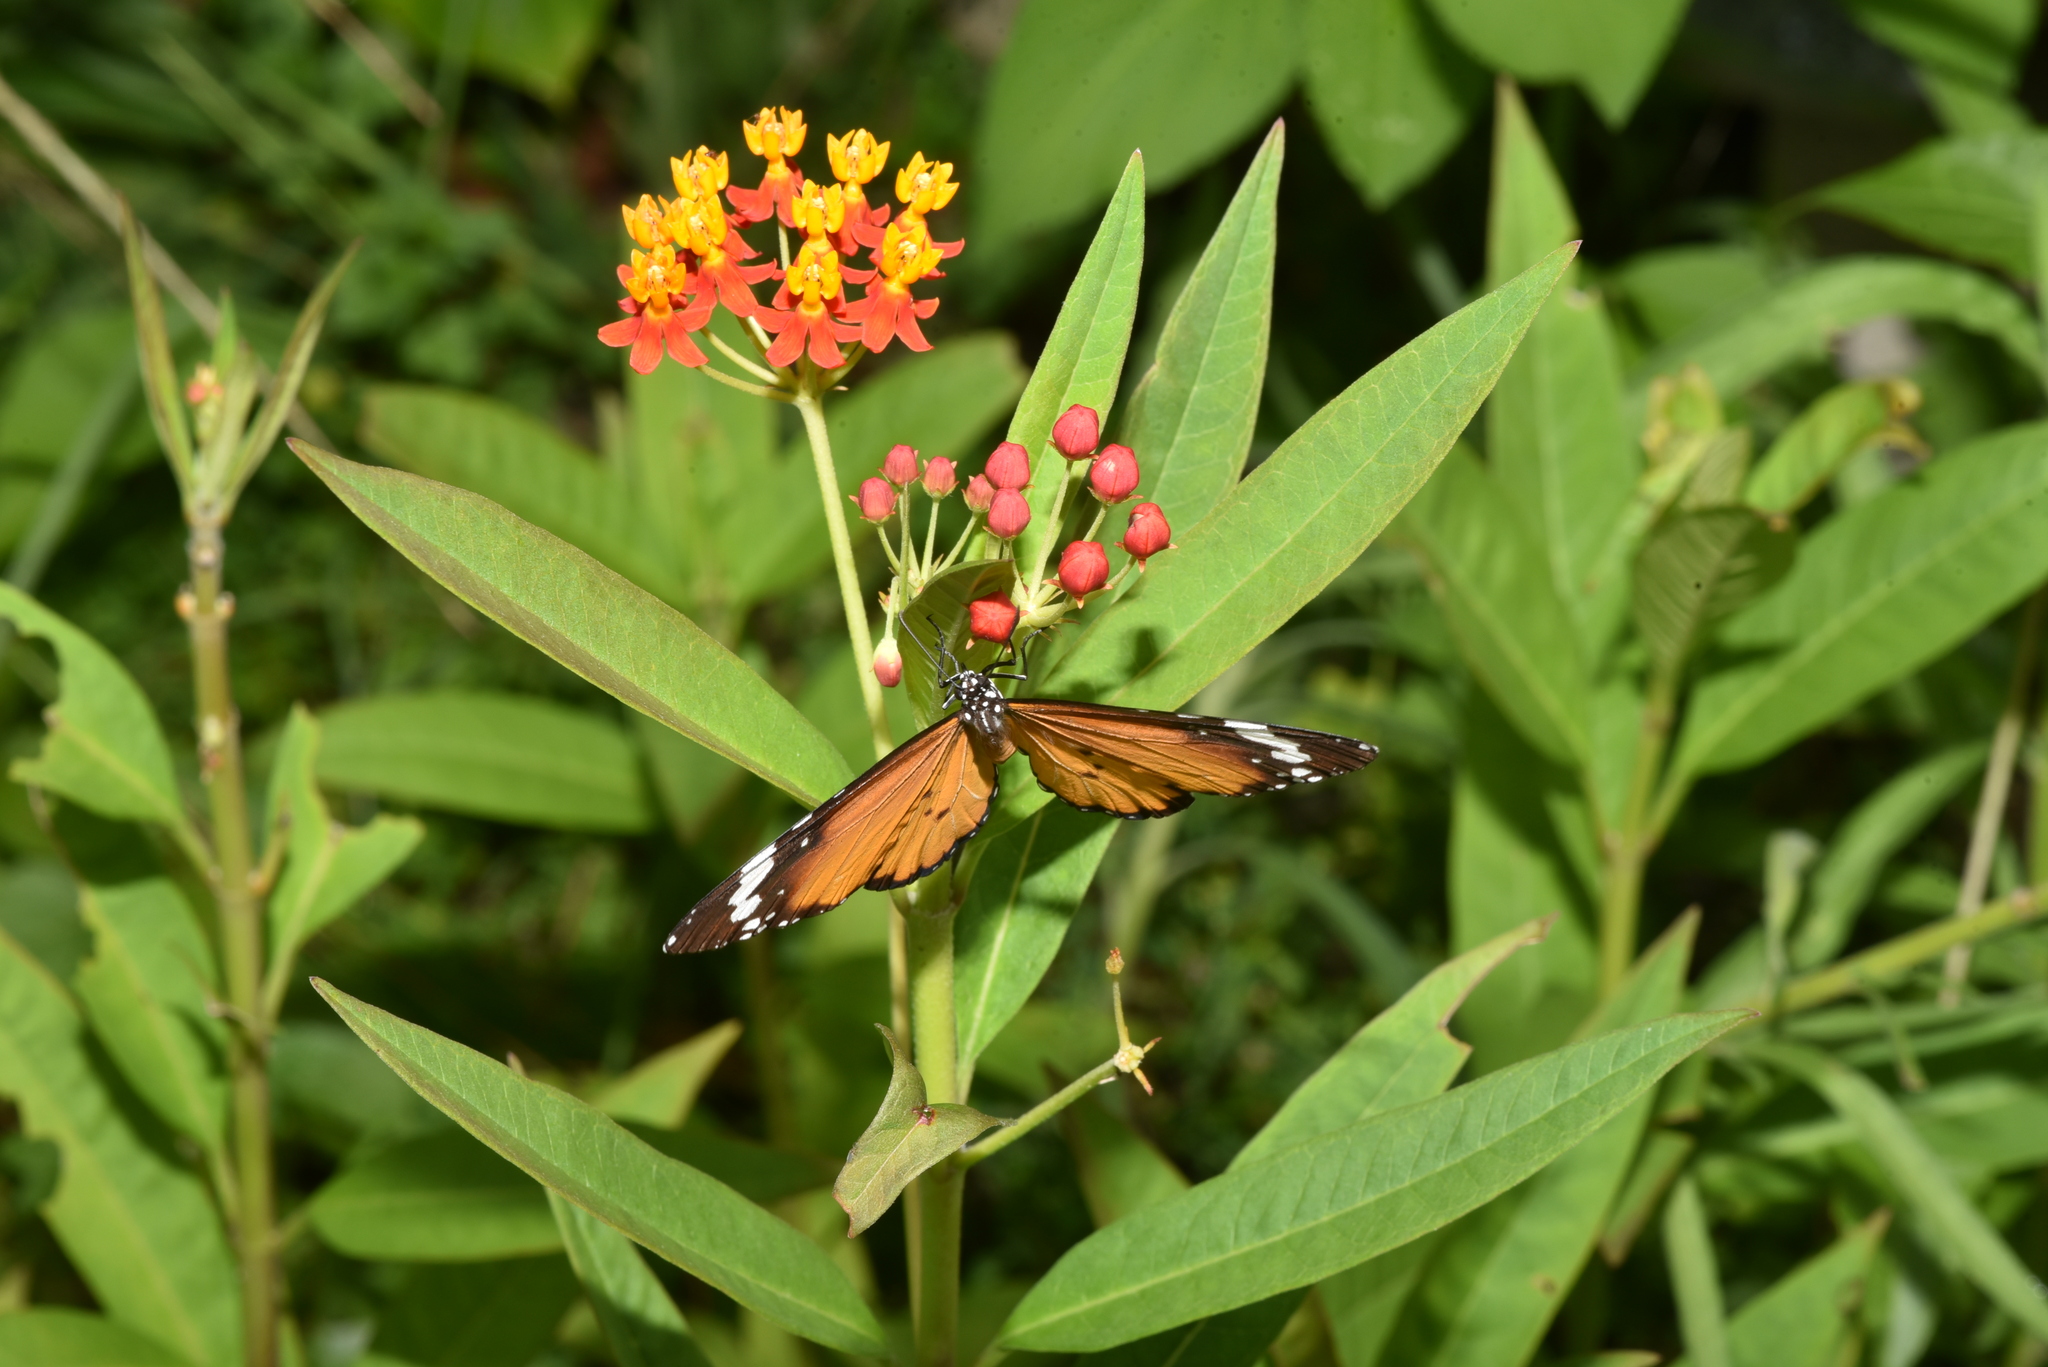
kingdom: Animalia
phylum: Arthropoda
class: Insecta
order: Lepidoptera
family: Nymphalidae
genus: Danaus
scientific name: Danaus chrysippus
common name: Plain tiger
